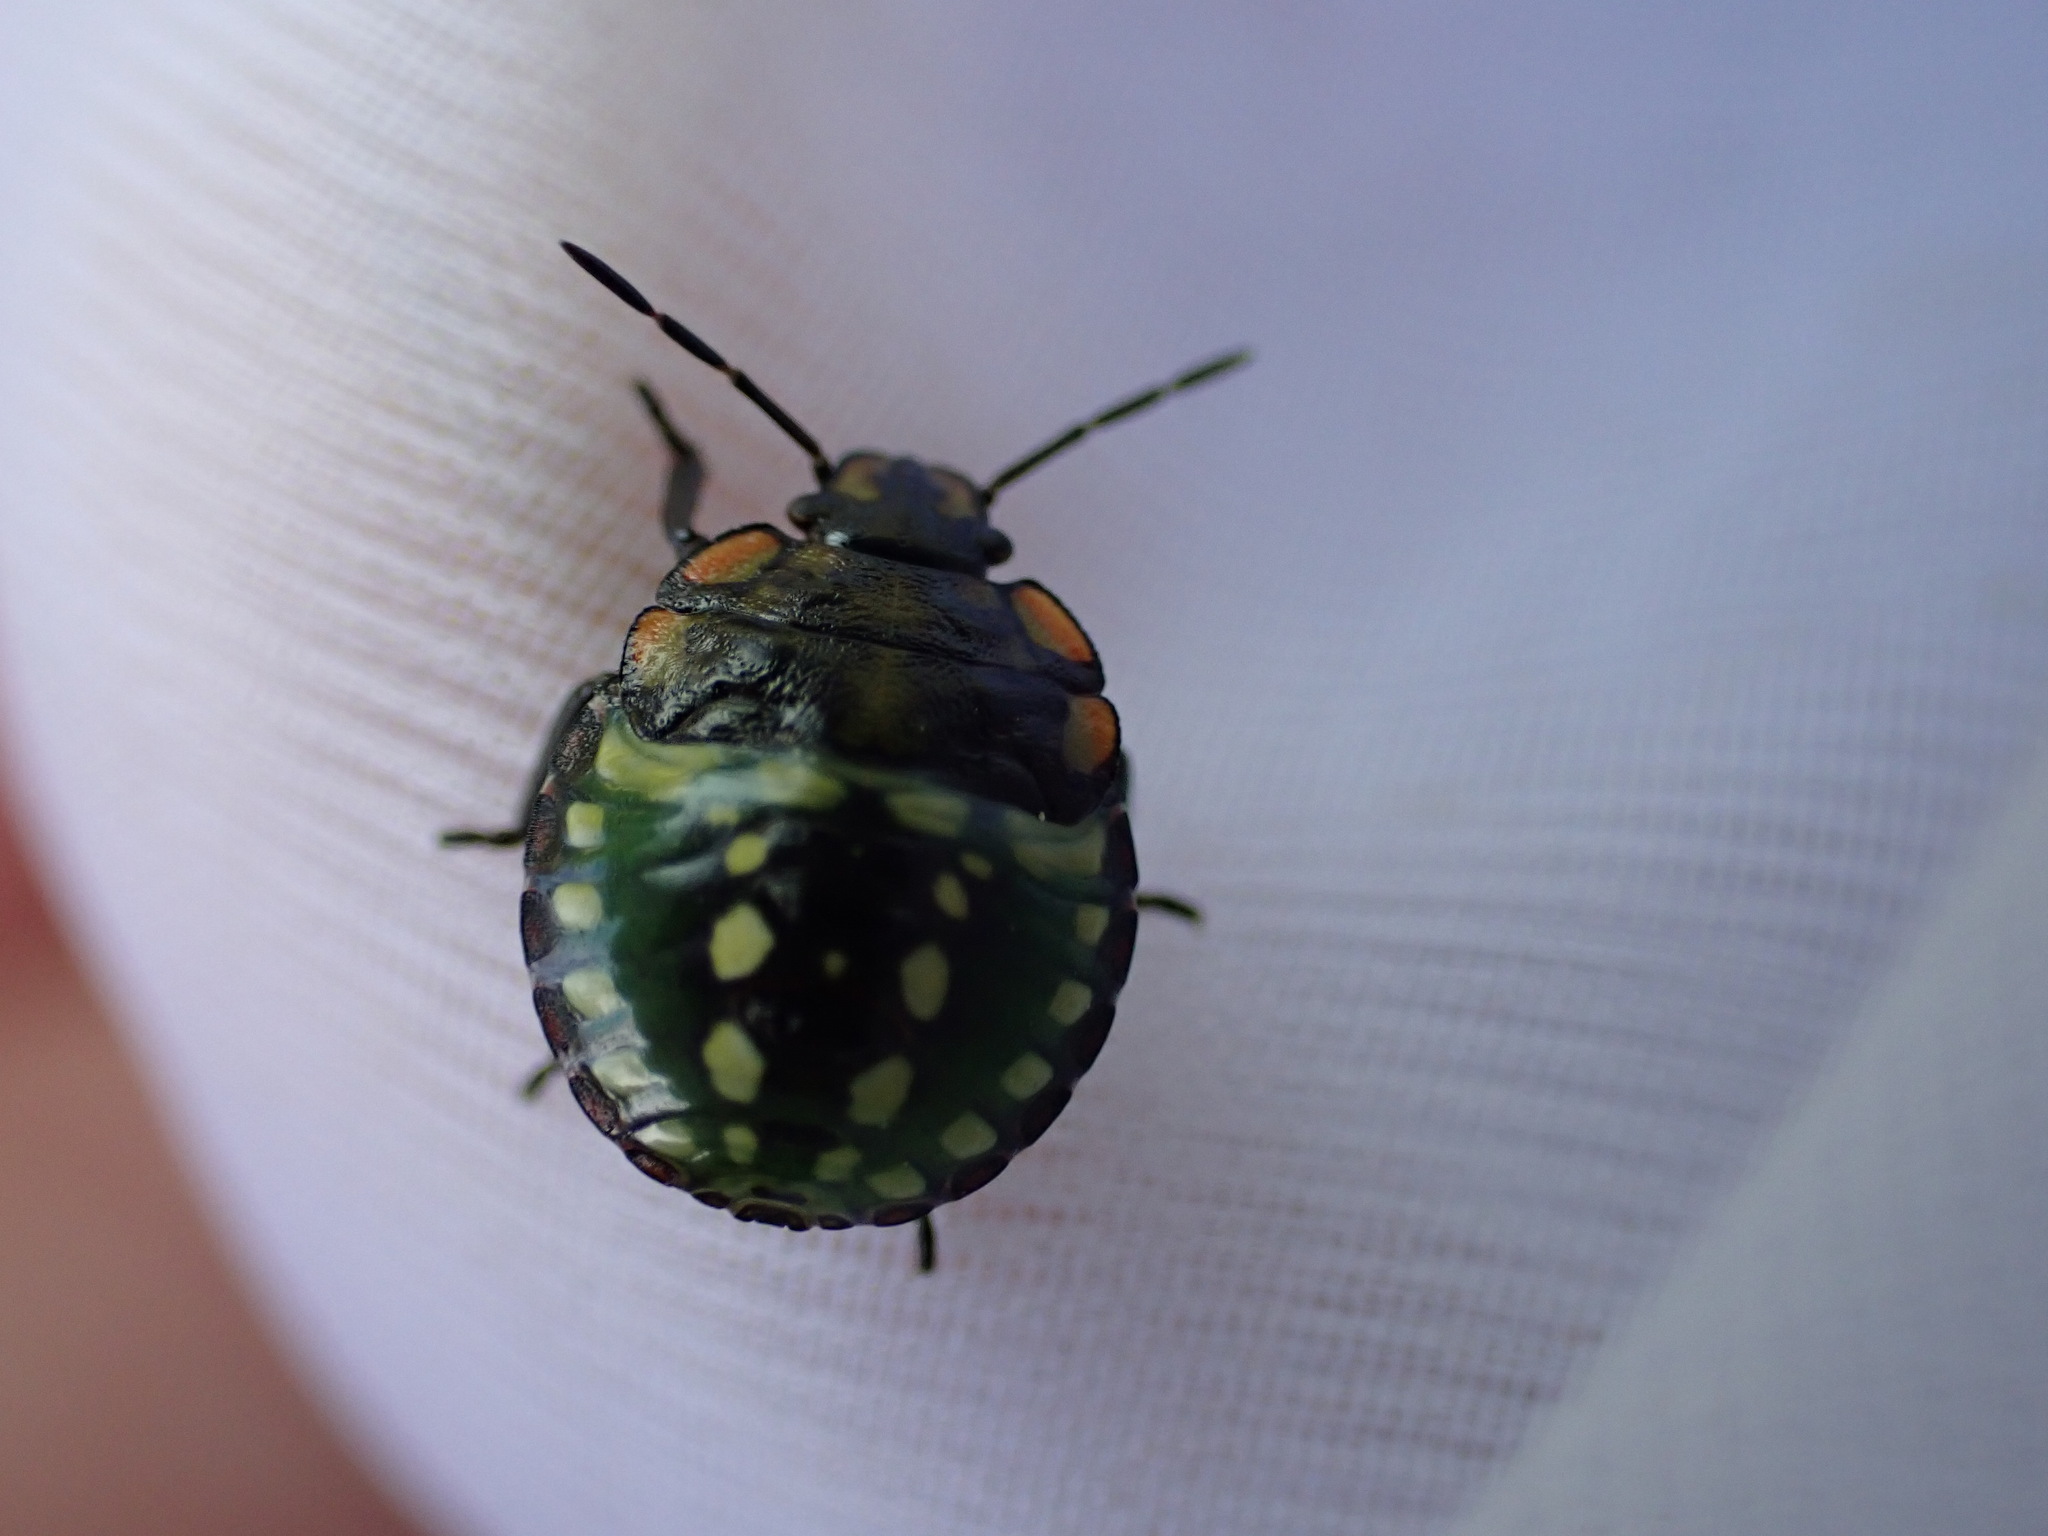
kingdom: Animalia
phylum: Arthropoda
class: Insecta
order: Hemiptera
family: Pentatomidae
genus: Nezara
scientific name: Nezara viridula
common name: Southern green stink bug
